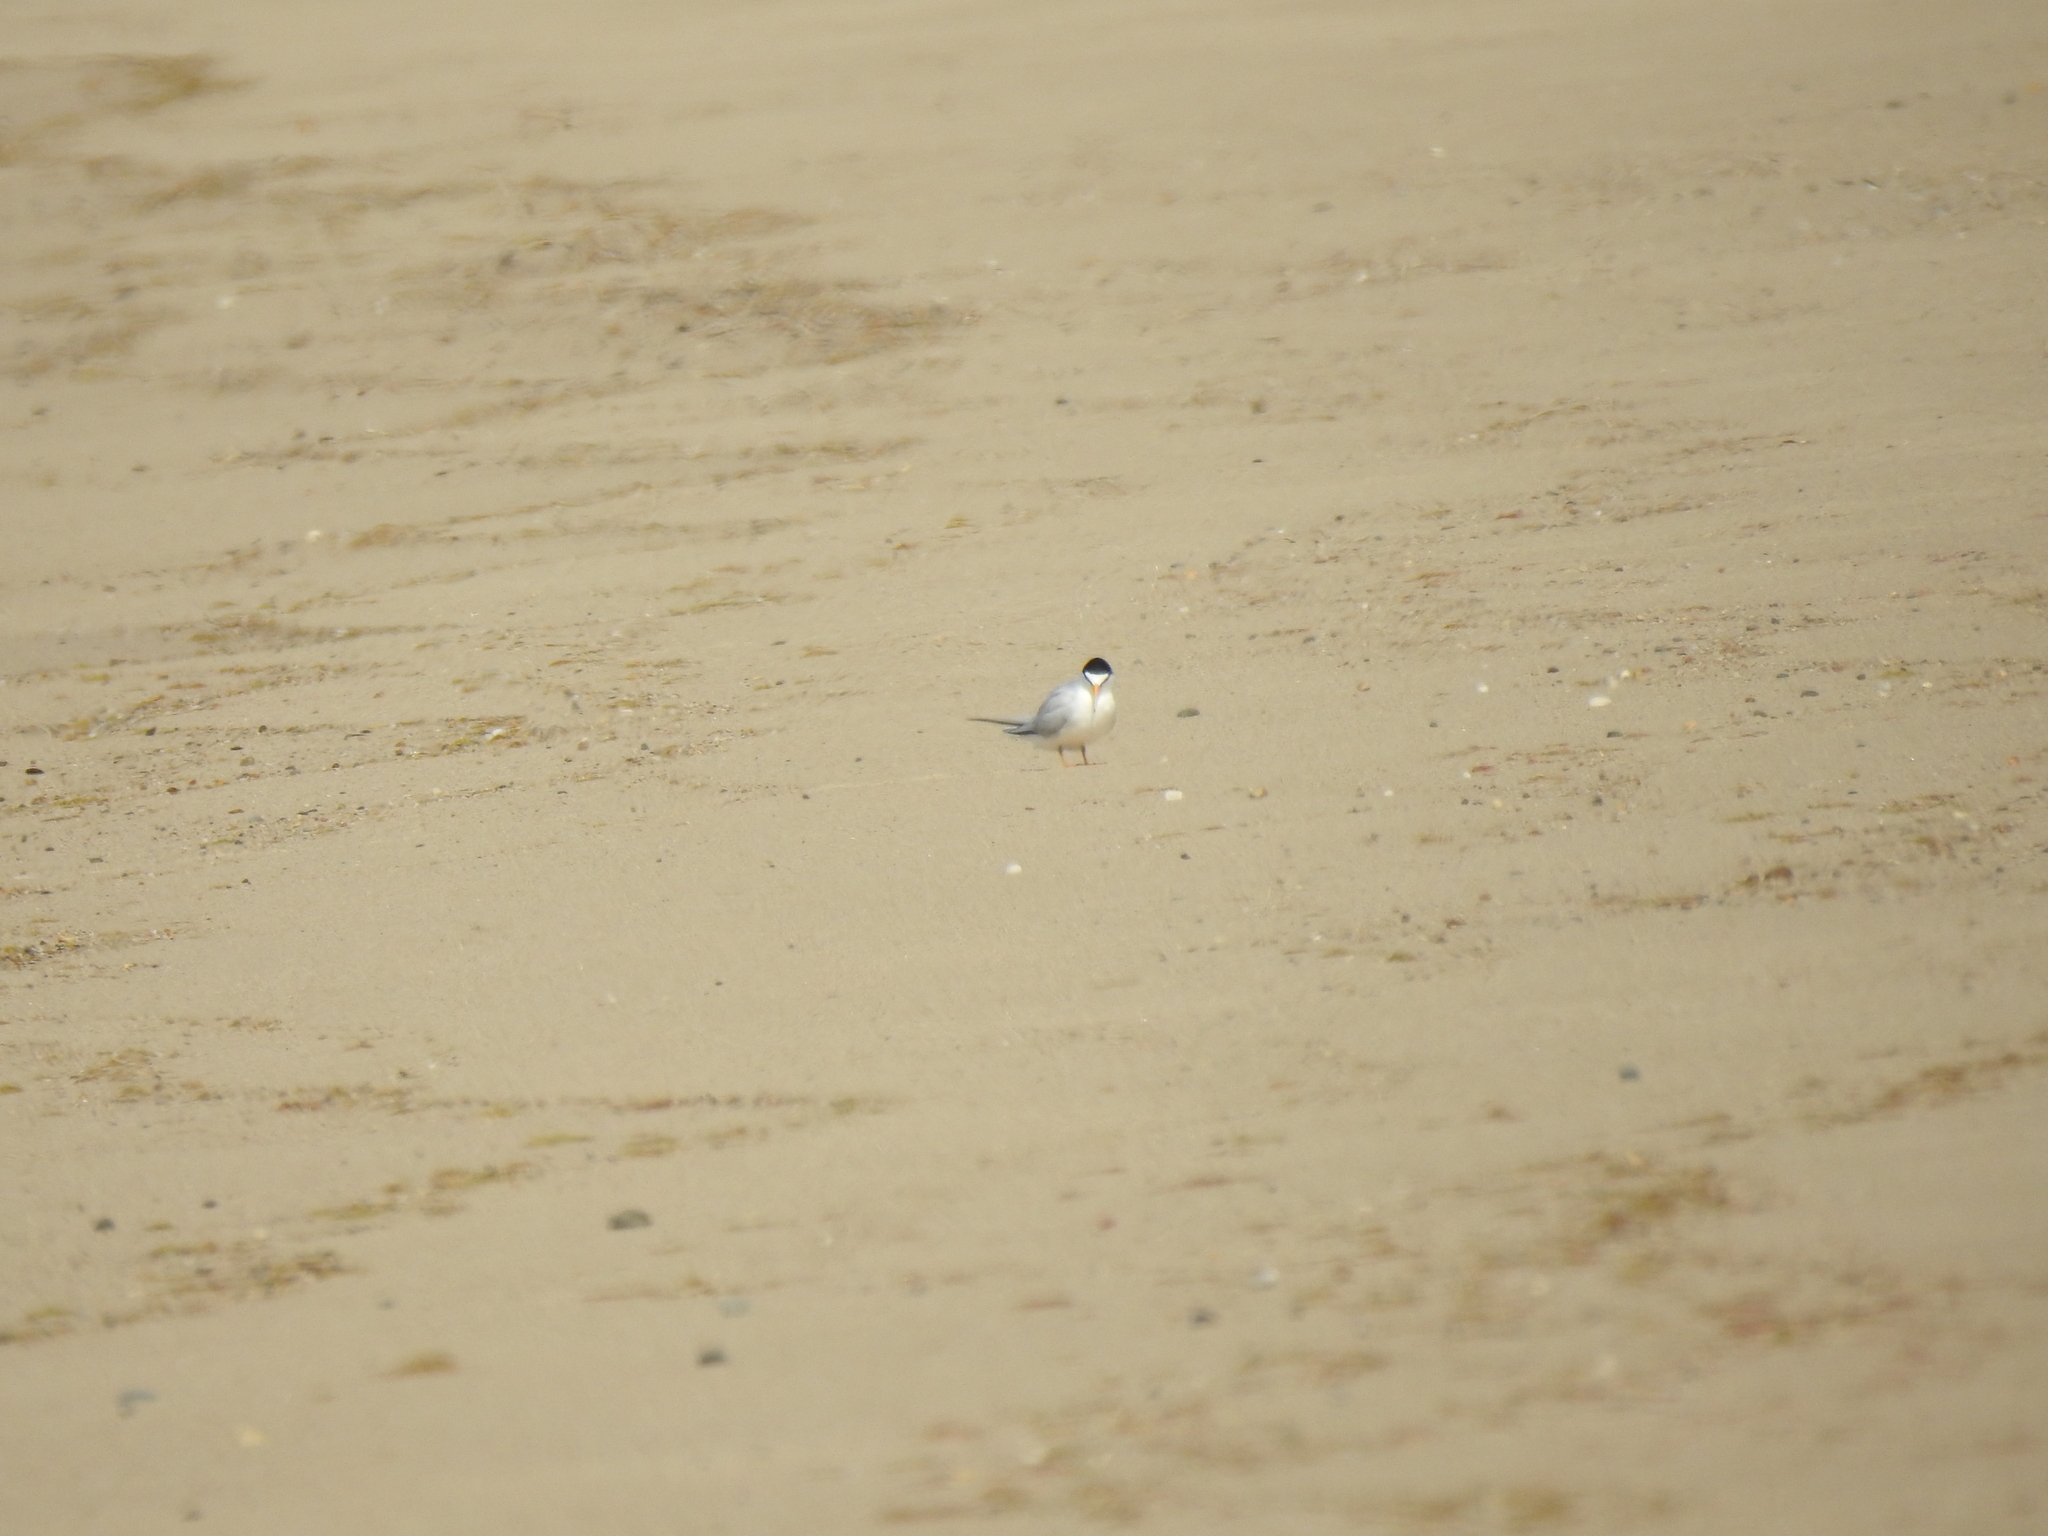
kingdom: Animalia
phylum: Chordata
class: Aves
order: Charadriiformes
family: Laridae
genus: Sternula
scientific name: Sternula antillarum
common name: Least tern
